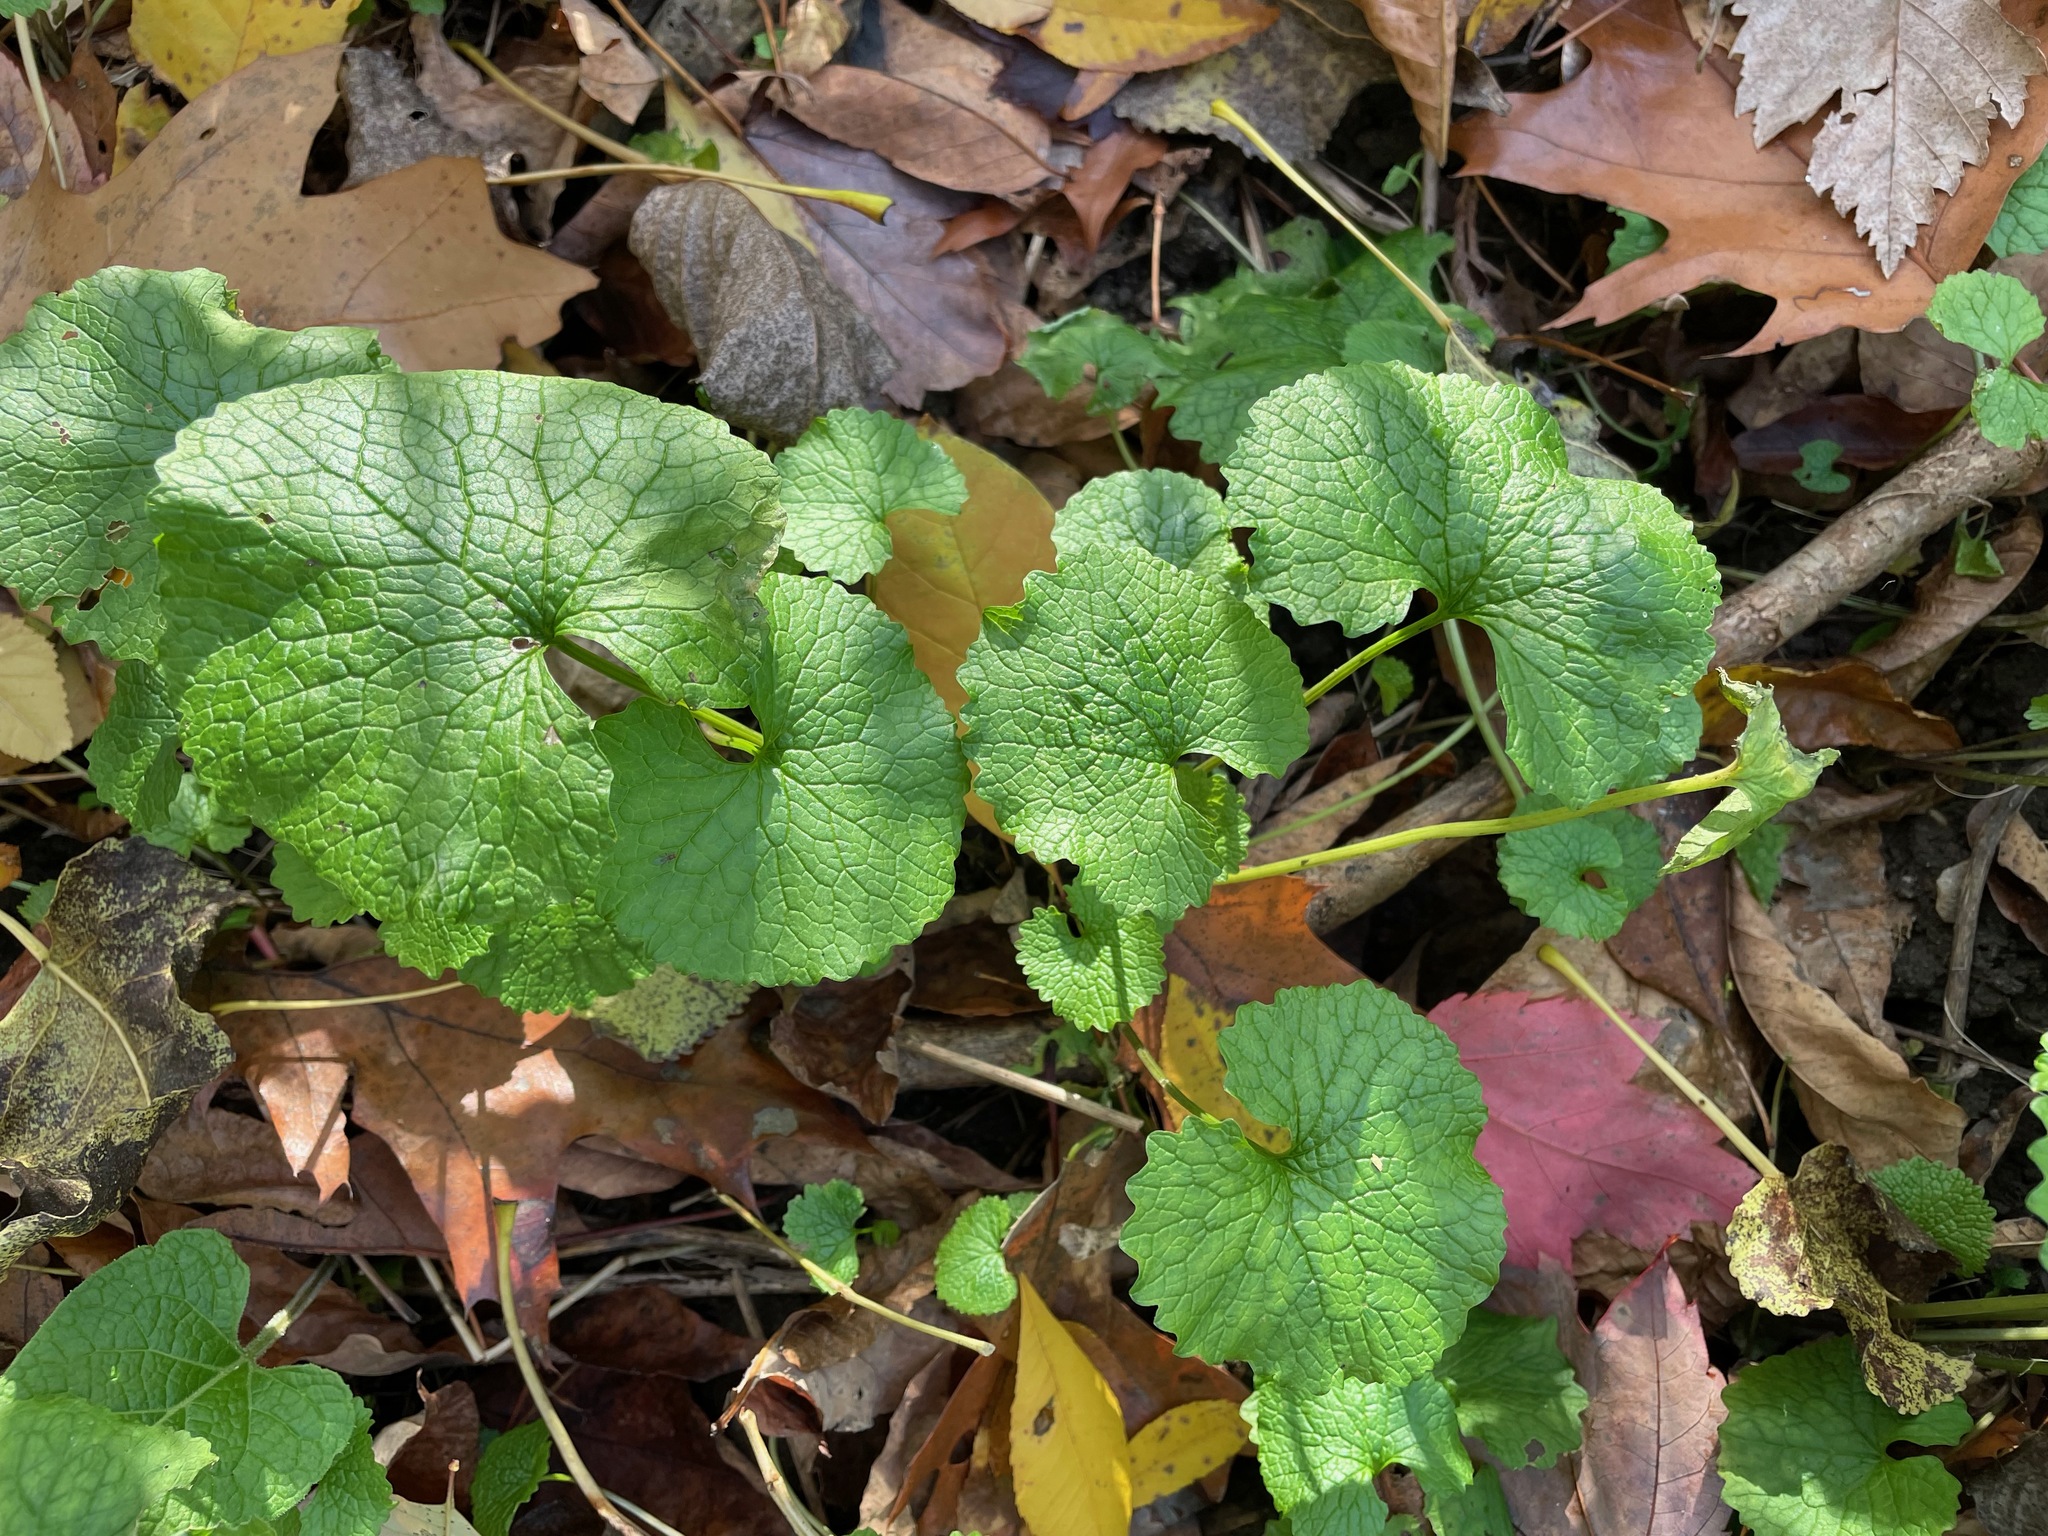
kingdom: Plantae
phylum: Tracheophyta
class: Magnoliopsida
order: Brassicales
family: Brassicaceae
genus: Alliaria
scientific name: Alliaria petiolata
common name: Garlic mustard
